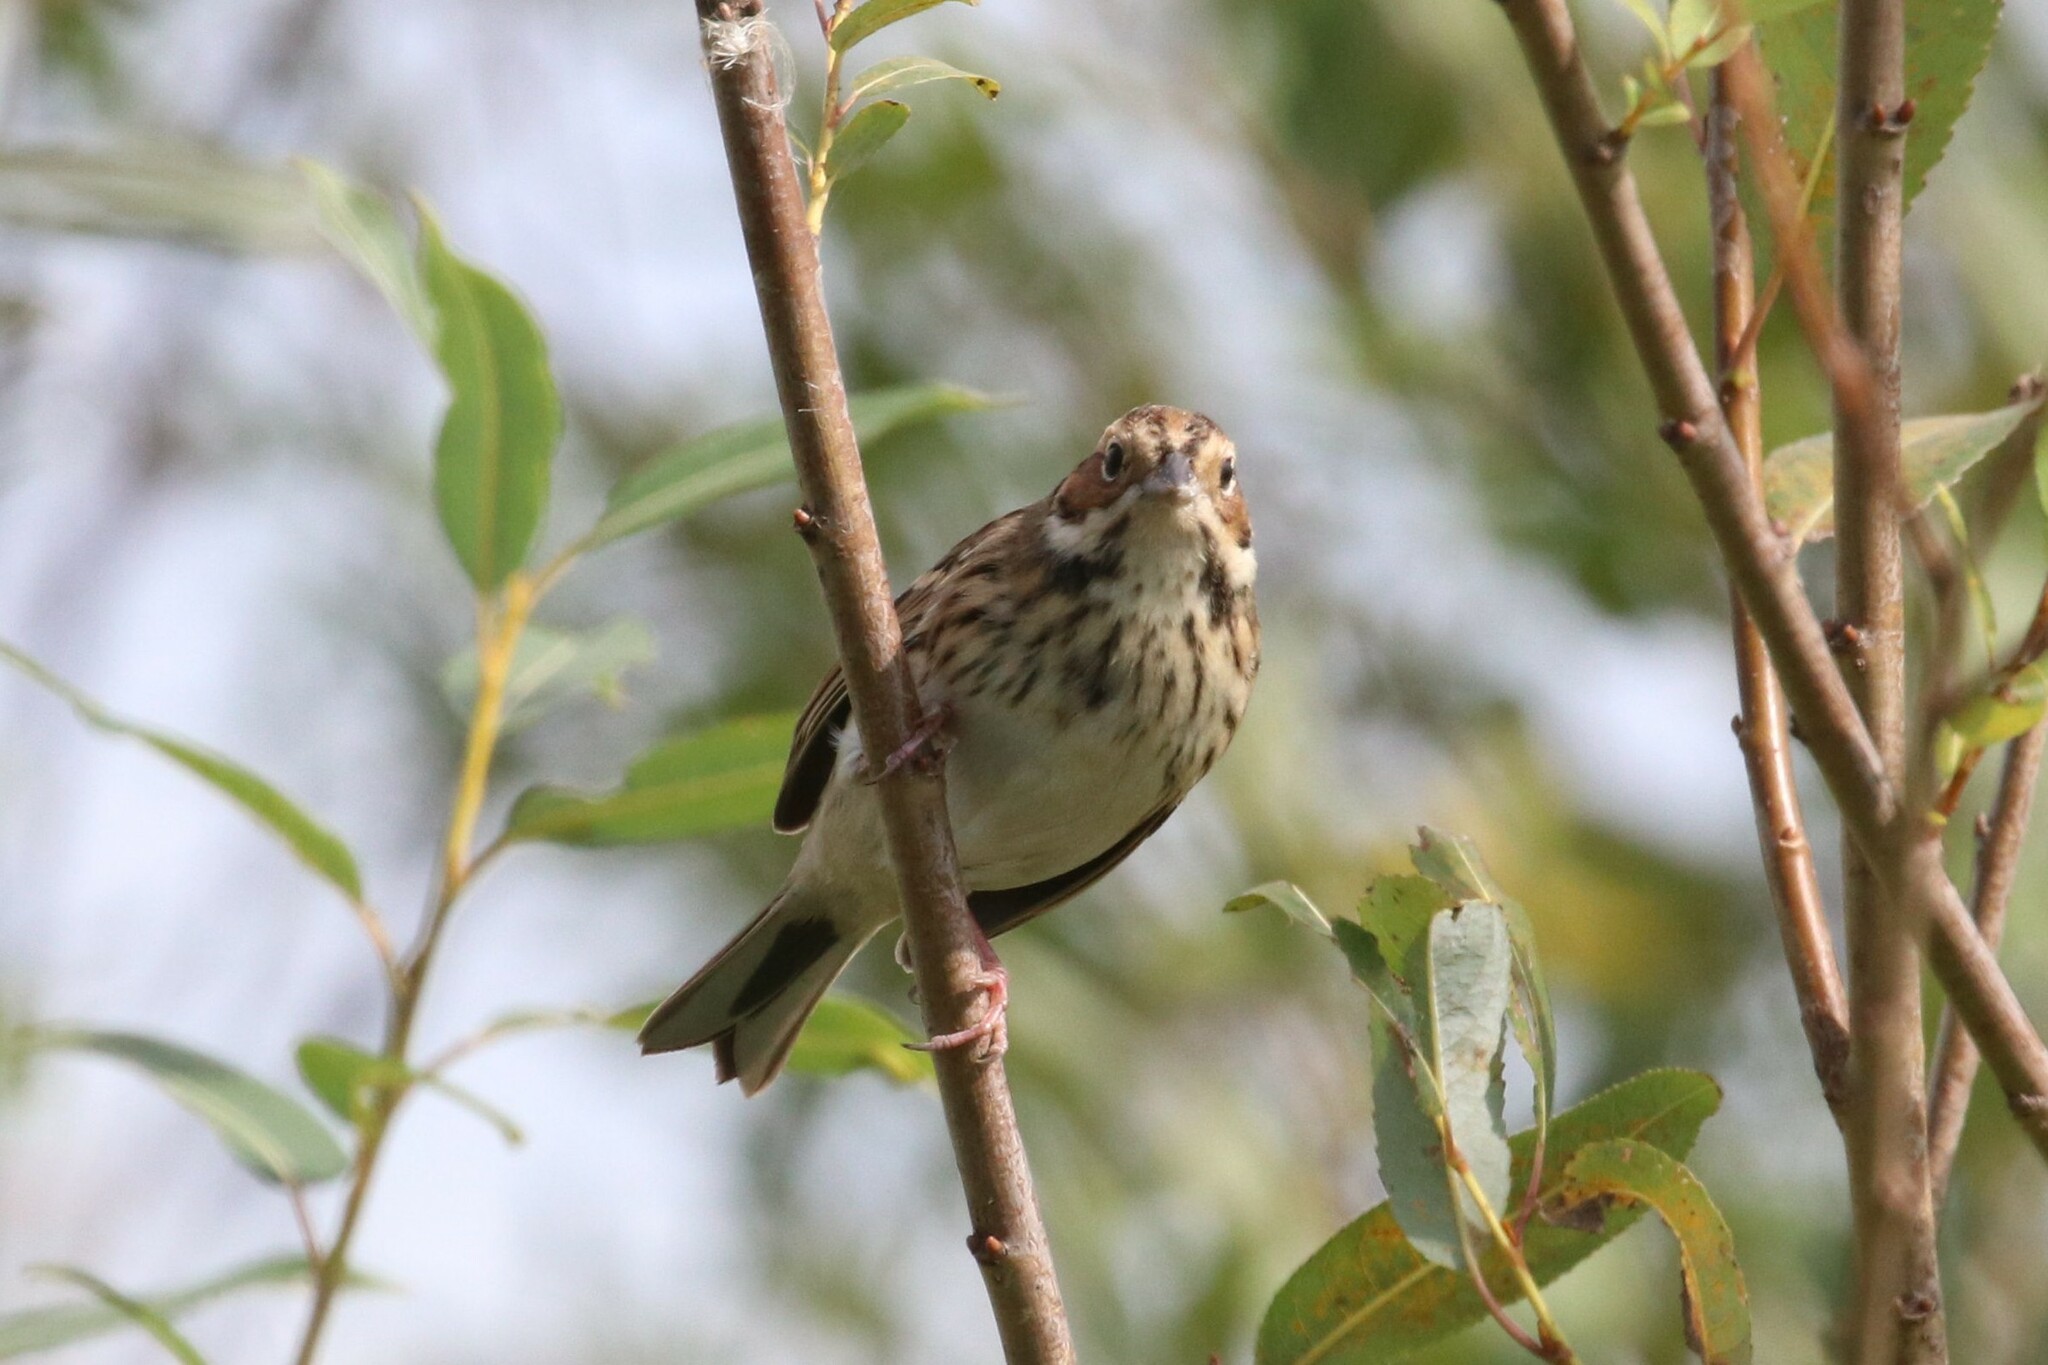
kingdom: Animalia
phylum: Chordata
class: Aves
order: Passeriformes
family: Emberizidae
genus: Emberiza
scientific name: Emberiza pusilla
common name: Little bunting
